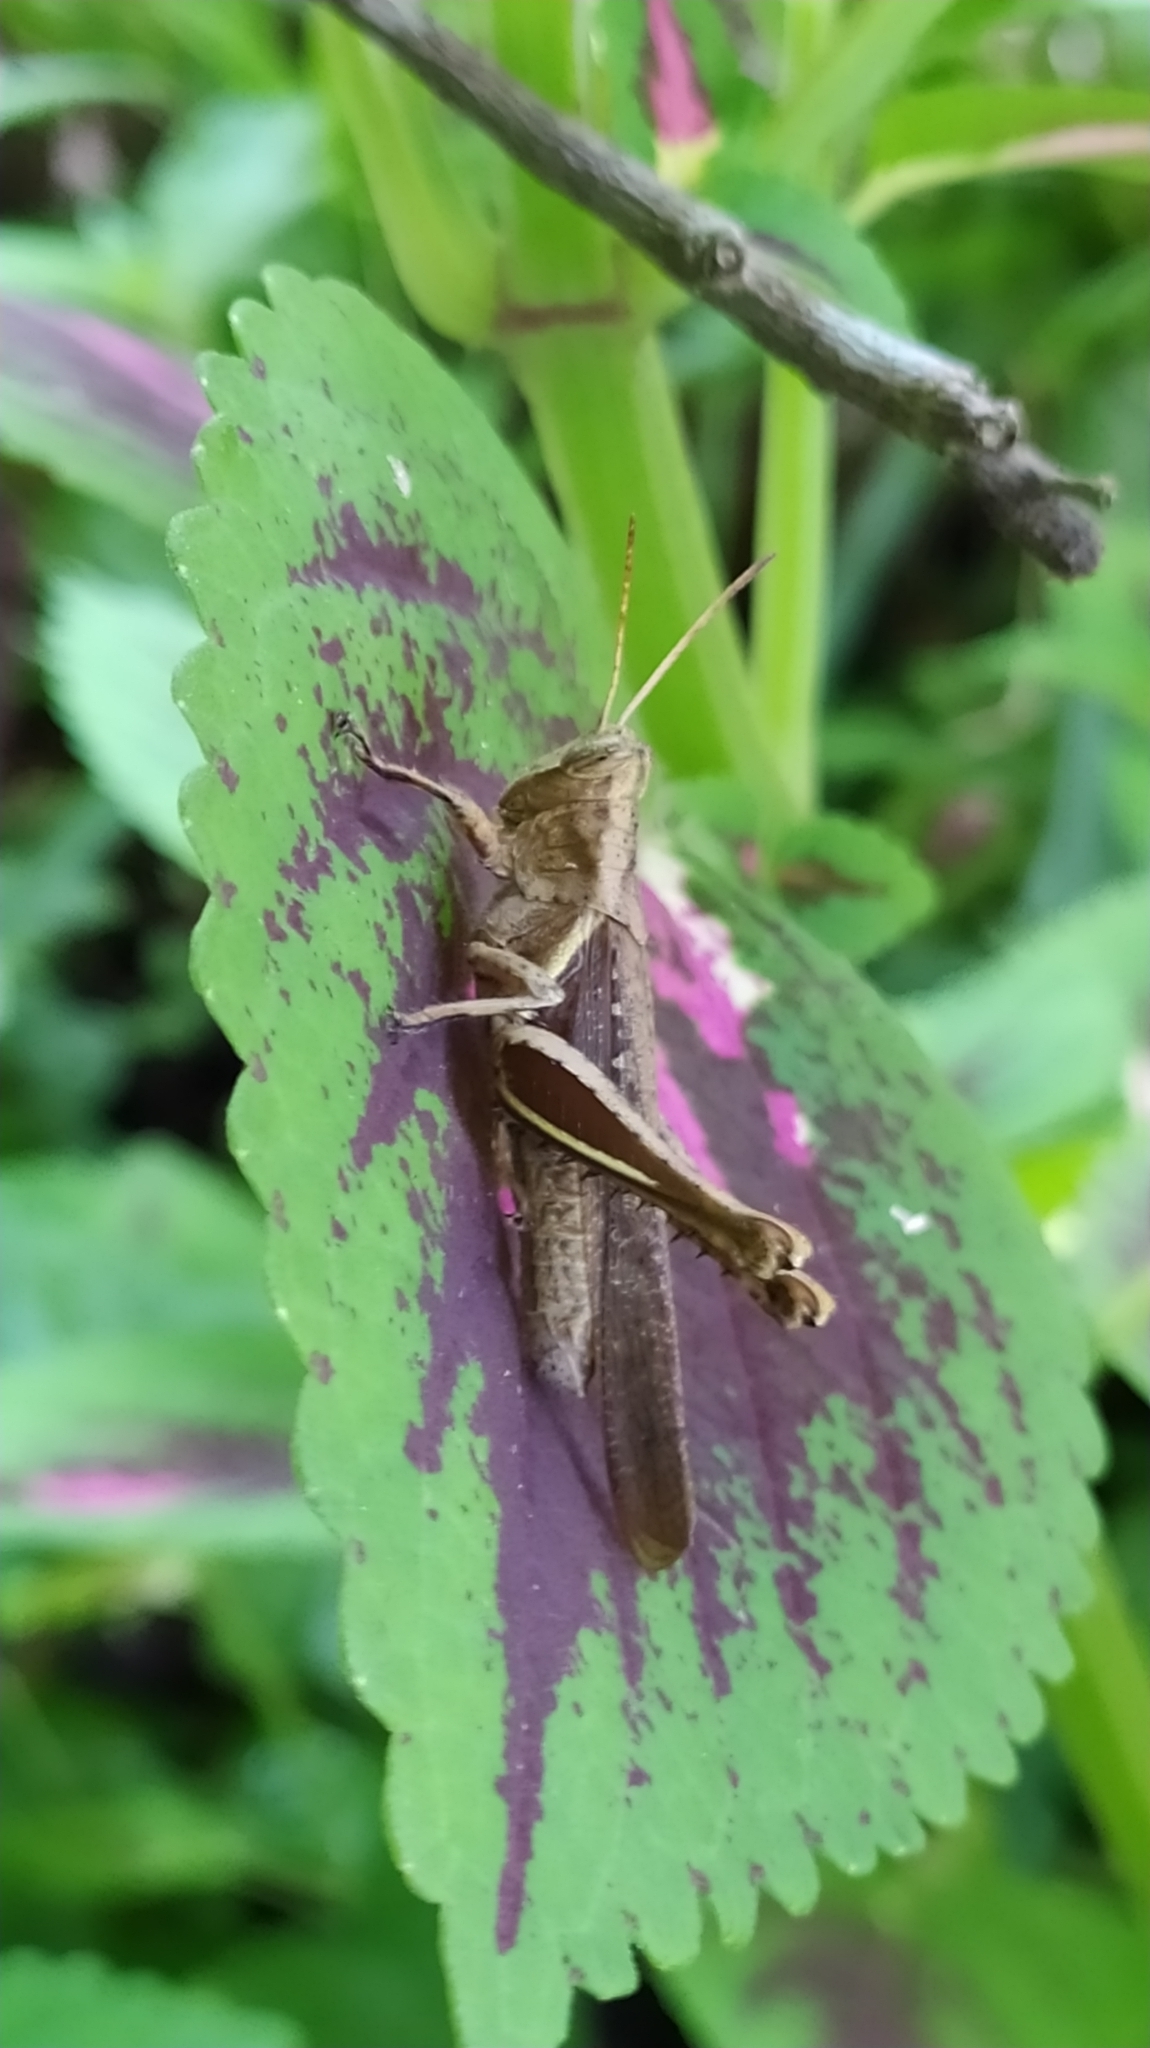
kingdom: Animalia
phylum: Arthropoda
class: Insecta
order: Orthoptera
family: Acrididae
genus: Abracris
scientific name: Abracris flavolineata
